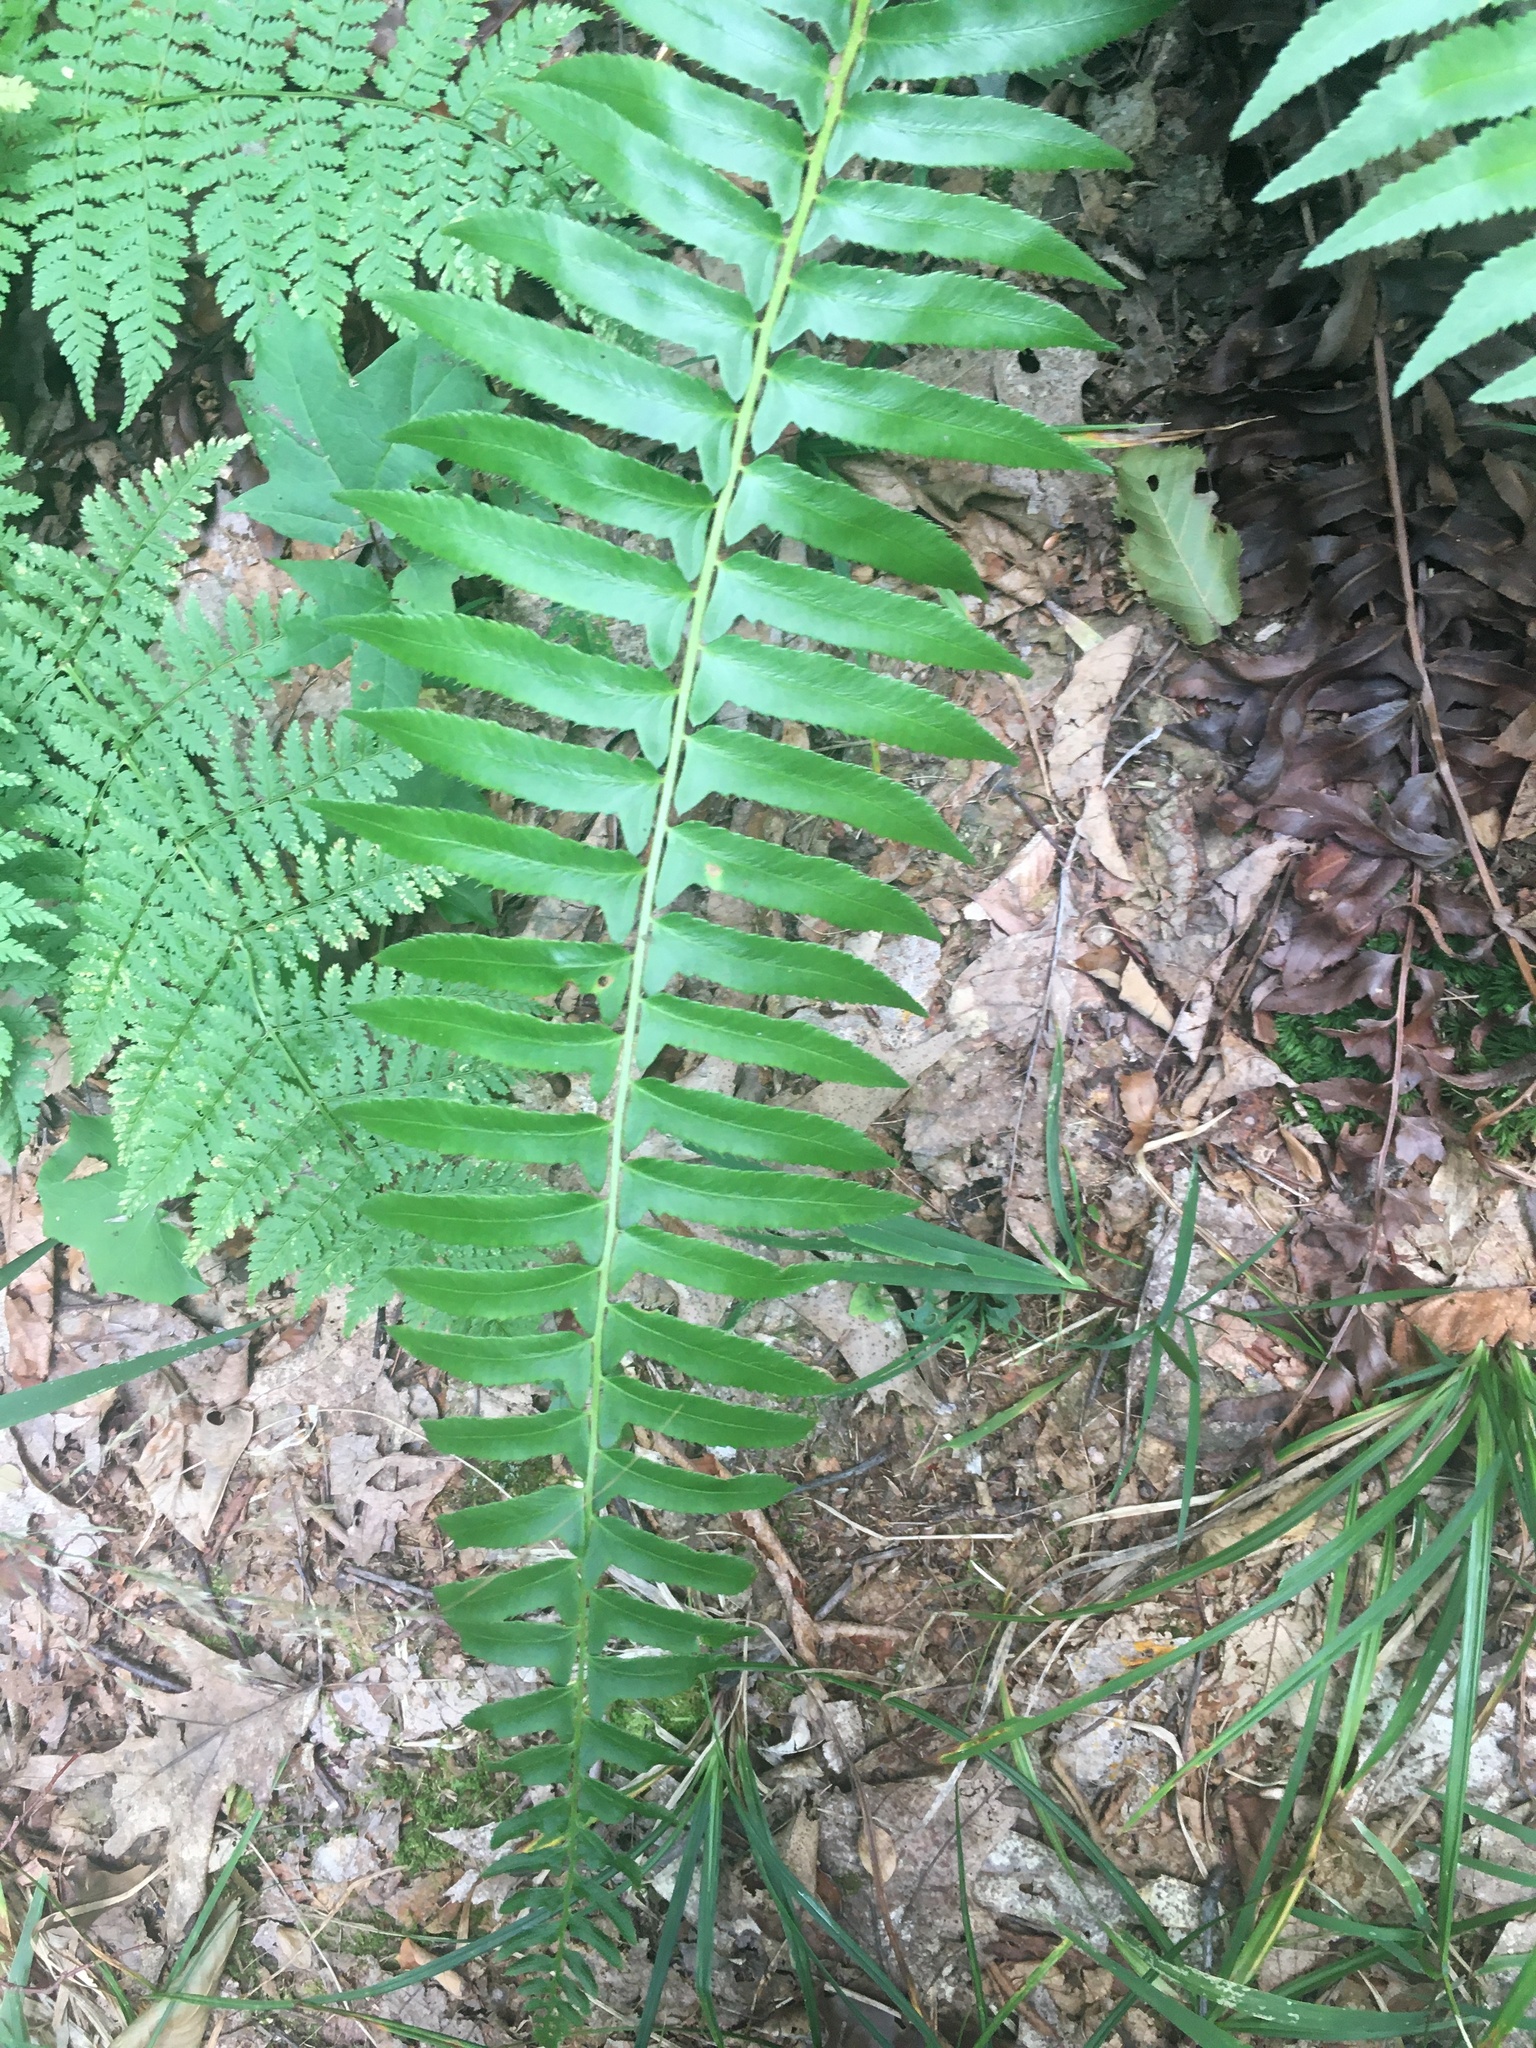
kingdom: Plantae
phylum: Tracheophyta
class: Polypodiopsida
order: Polypodiales
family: Dryopteridaceae
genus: Polystichum
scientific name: Polystichum acrostichoides
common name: Christmas fern
